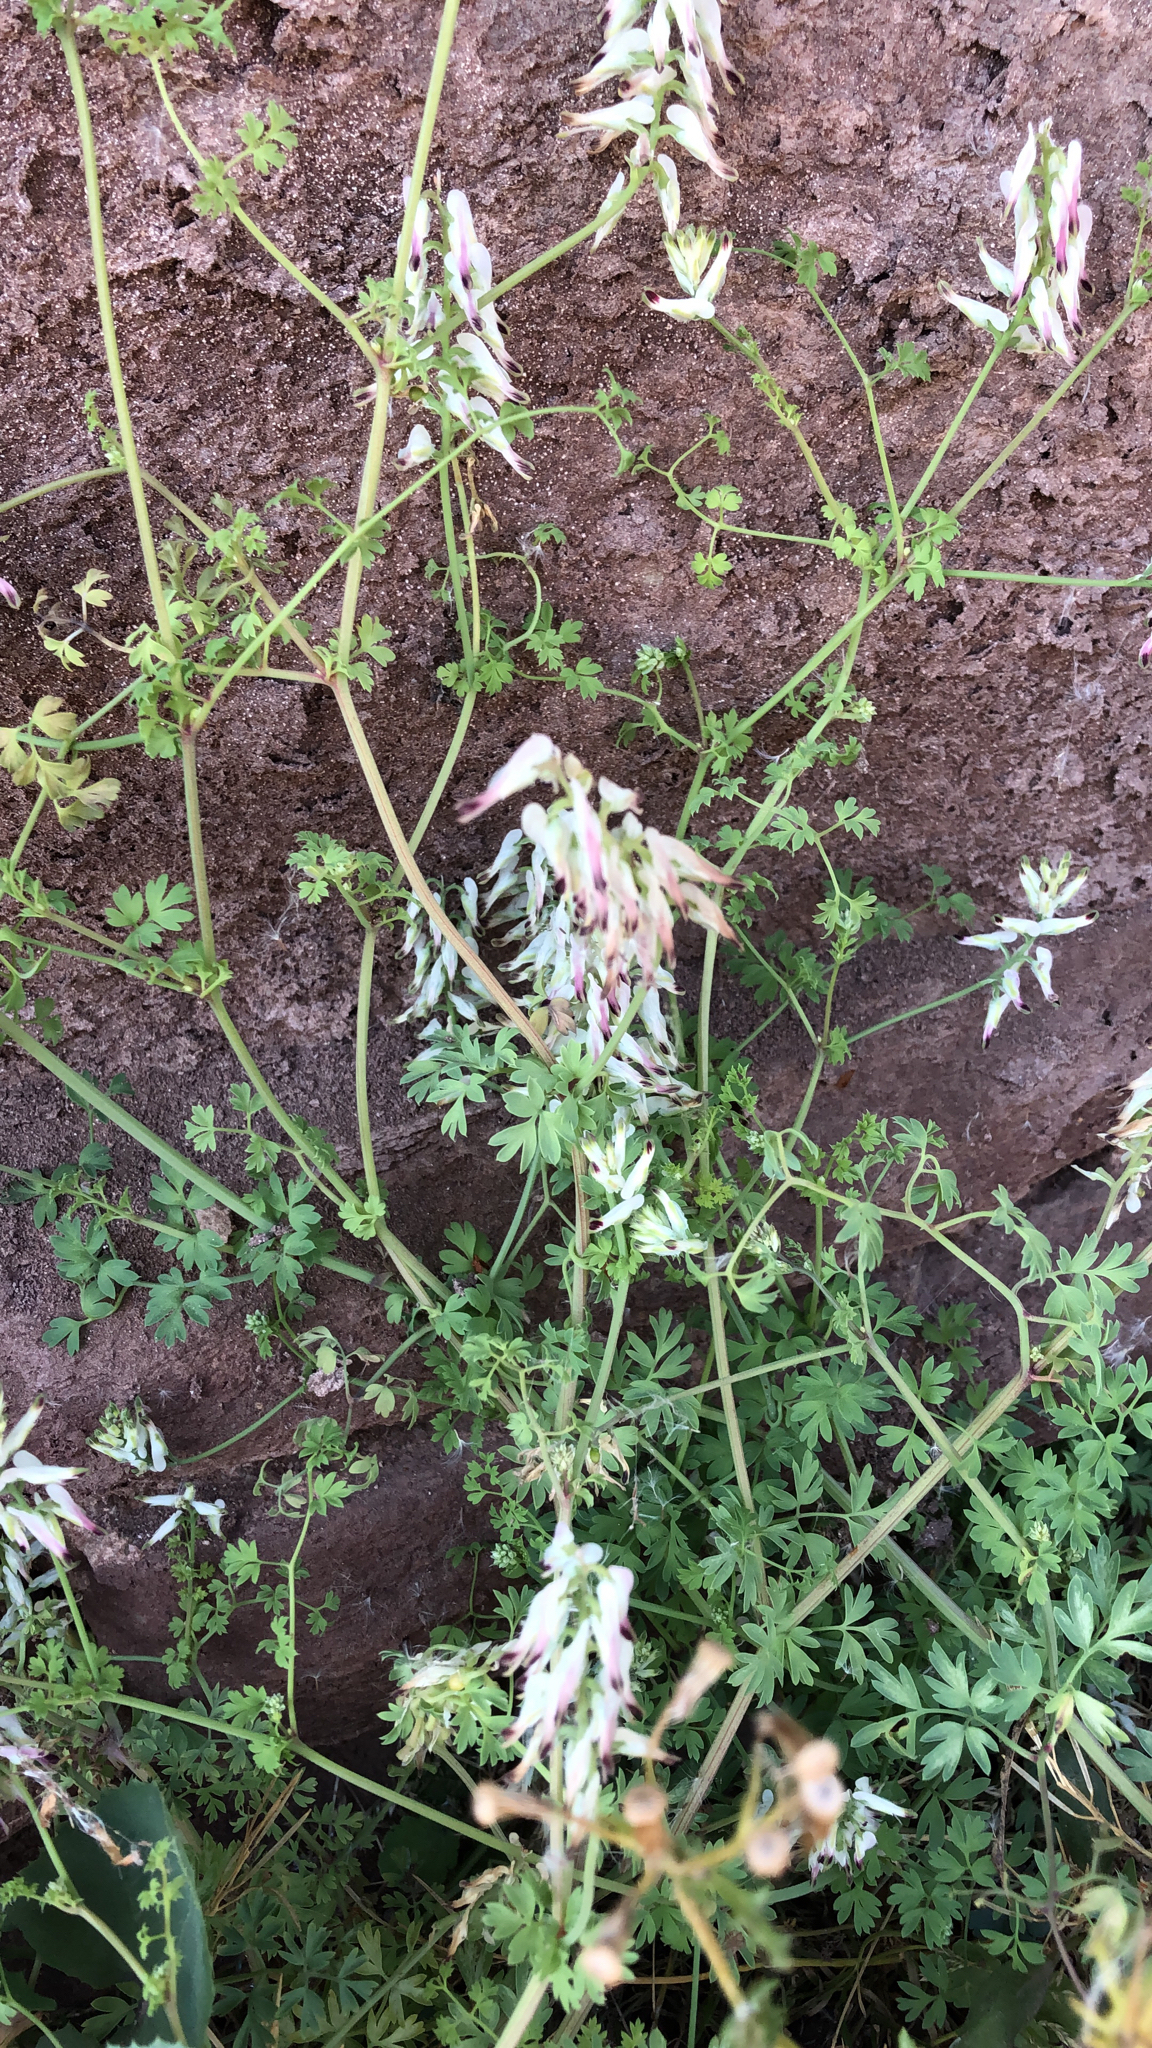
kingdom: Plantae
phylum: Tracheophyta
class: Magnoliopsida
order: Ranunculales
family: Papaveraceae
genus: Fumaria
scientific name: Fumaria capreolata
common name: White ramping-fumitory
